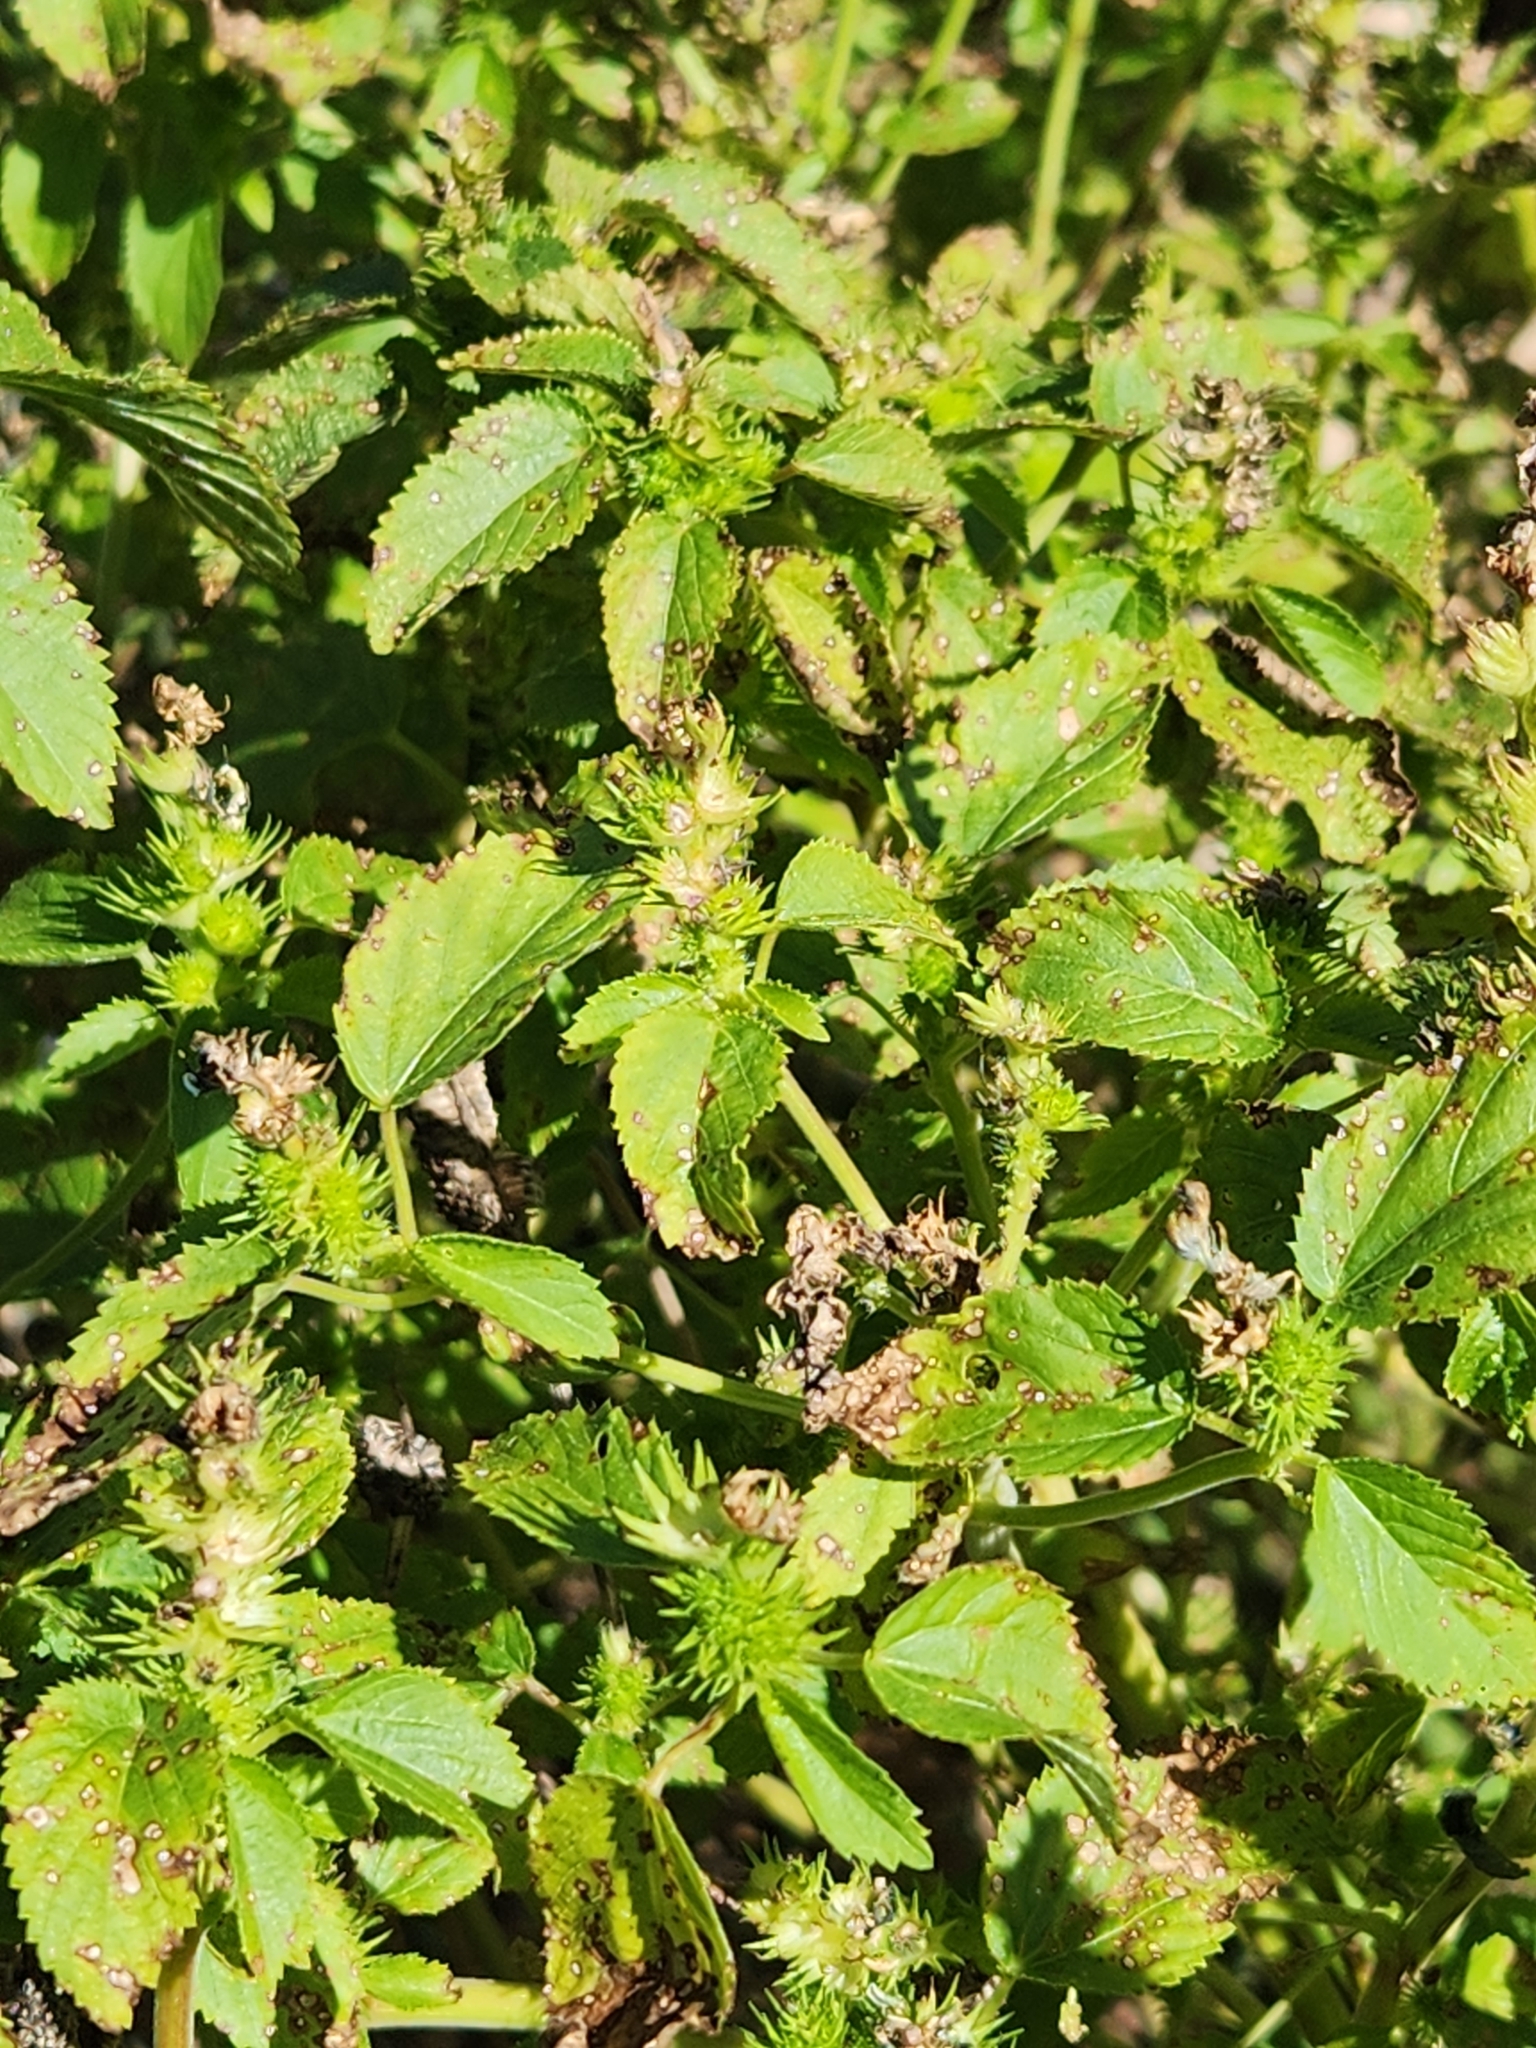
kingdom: Plantae
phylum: Tracheophyta
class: Magnoliopsida
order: Malpighiales
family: Euphorbiaceae
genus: Acalypha
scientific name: Acalypha ostryifolia
